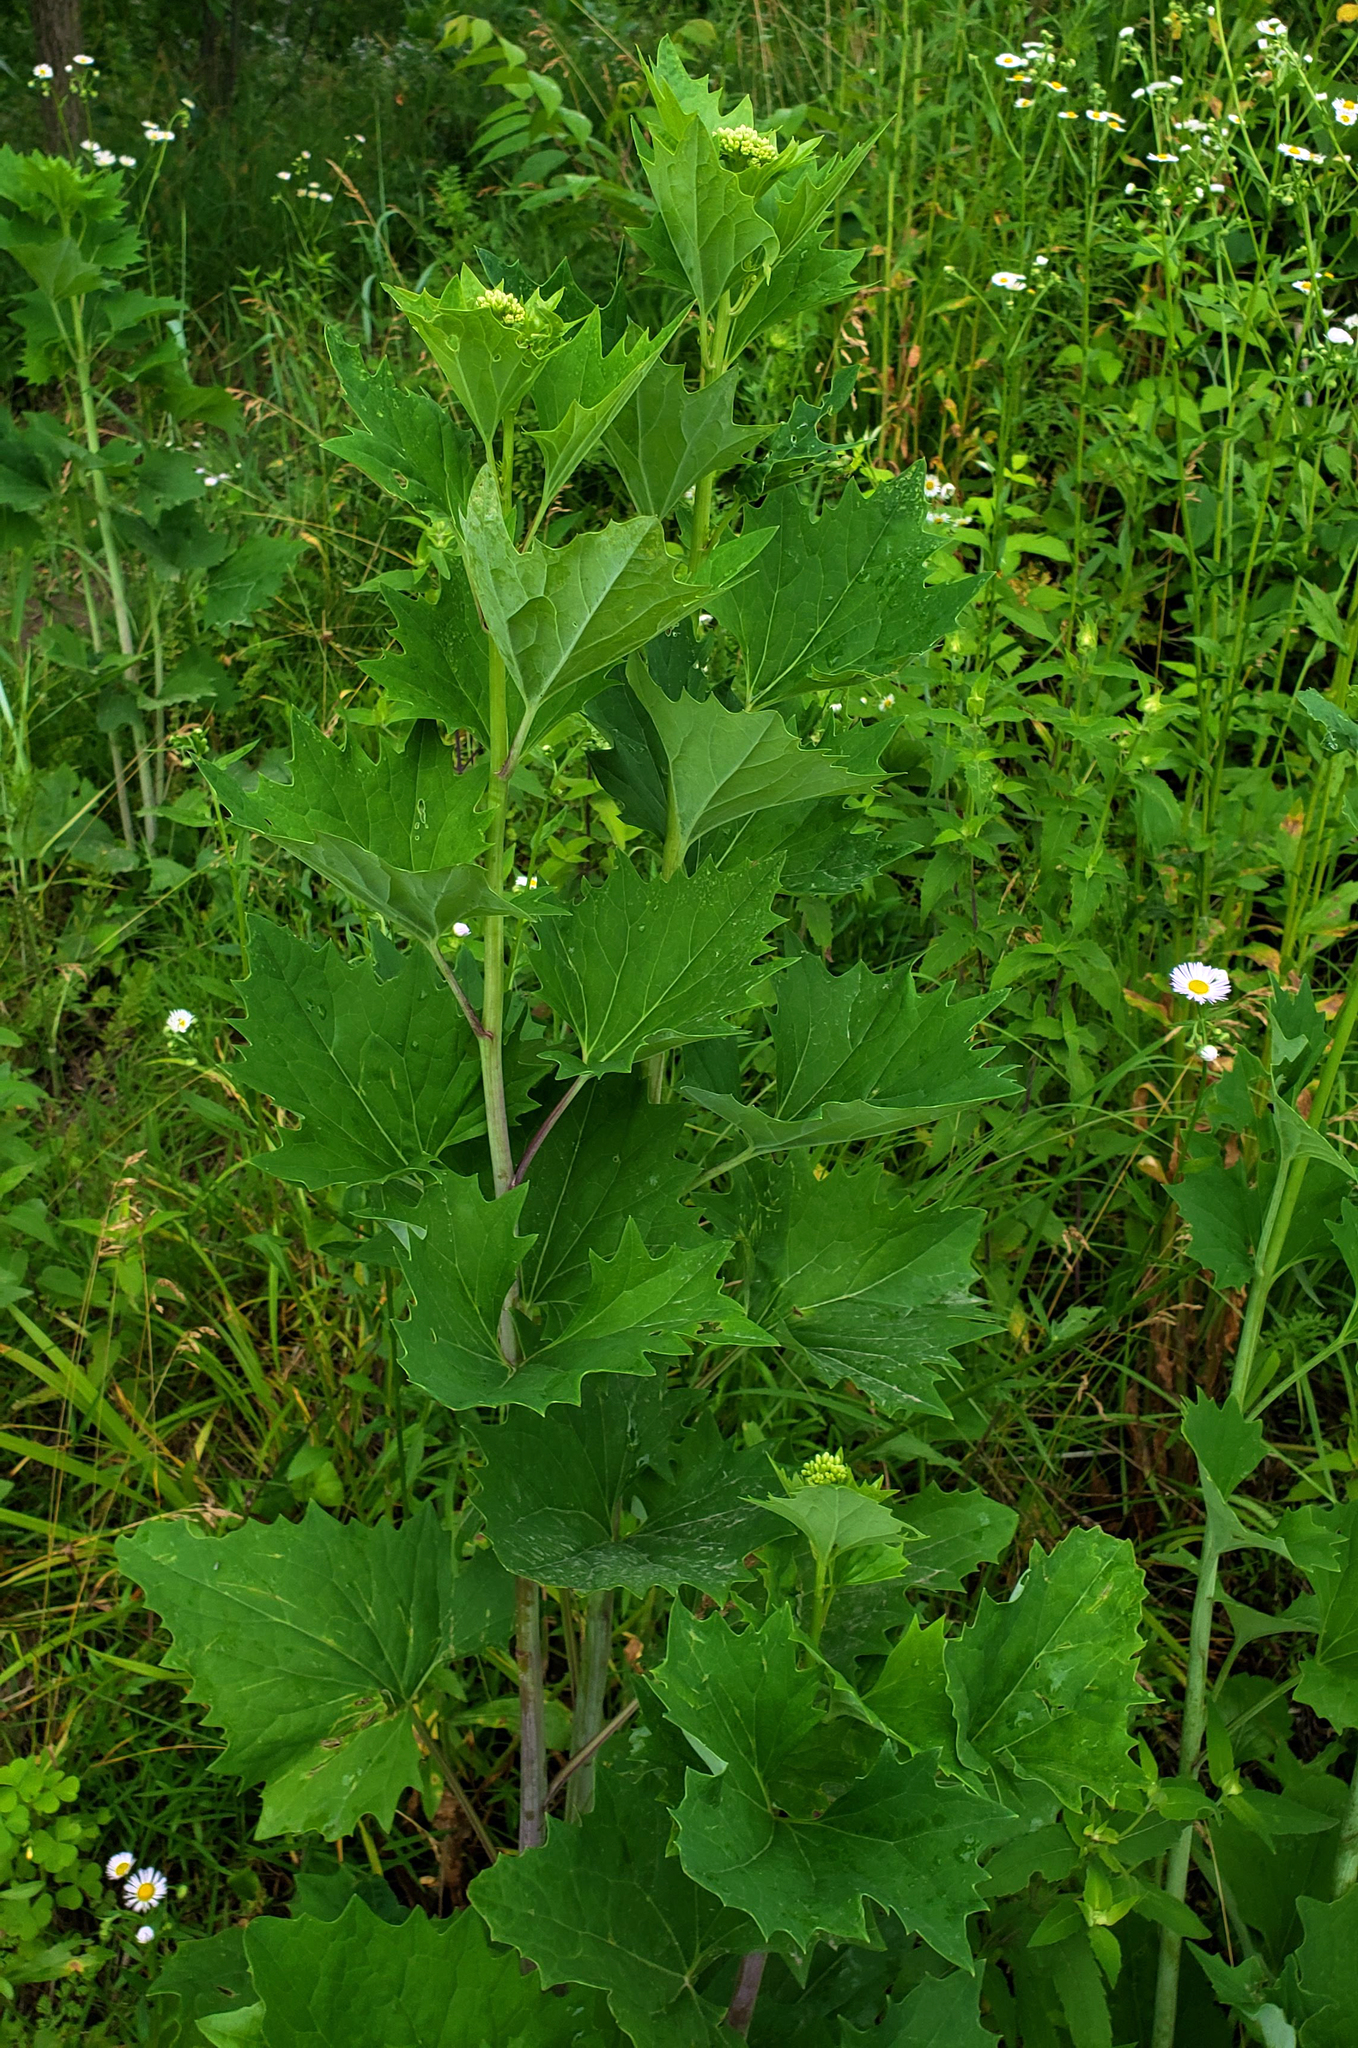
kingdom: Plantae
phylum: Tracheophyta
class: Magnoliopsida
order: Asterales
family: Asteraceae
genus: Arnoglossum
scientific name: Arnoglossum atriplicifolium
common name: Pale indian-plantain
